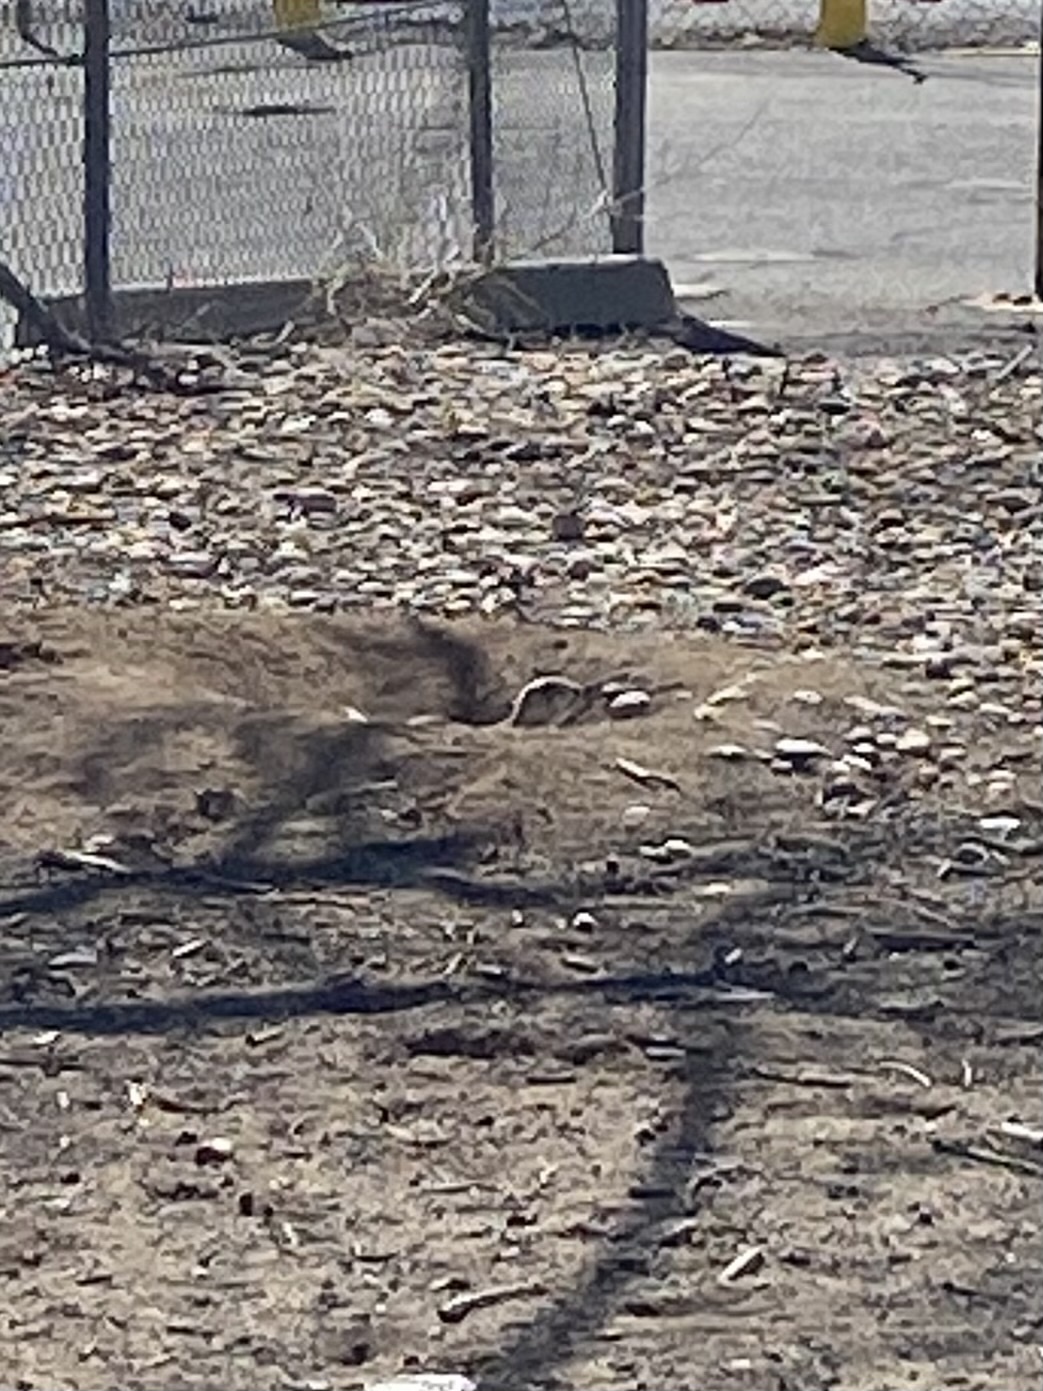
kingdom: Animalia
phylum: Chordata
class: Mammalia
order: Rodentia
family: Sciuridae
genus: Cynomys
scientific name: Cynomys ludovicianus
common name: Black-tailed prairie dog
